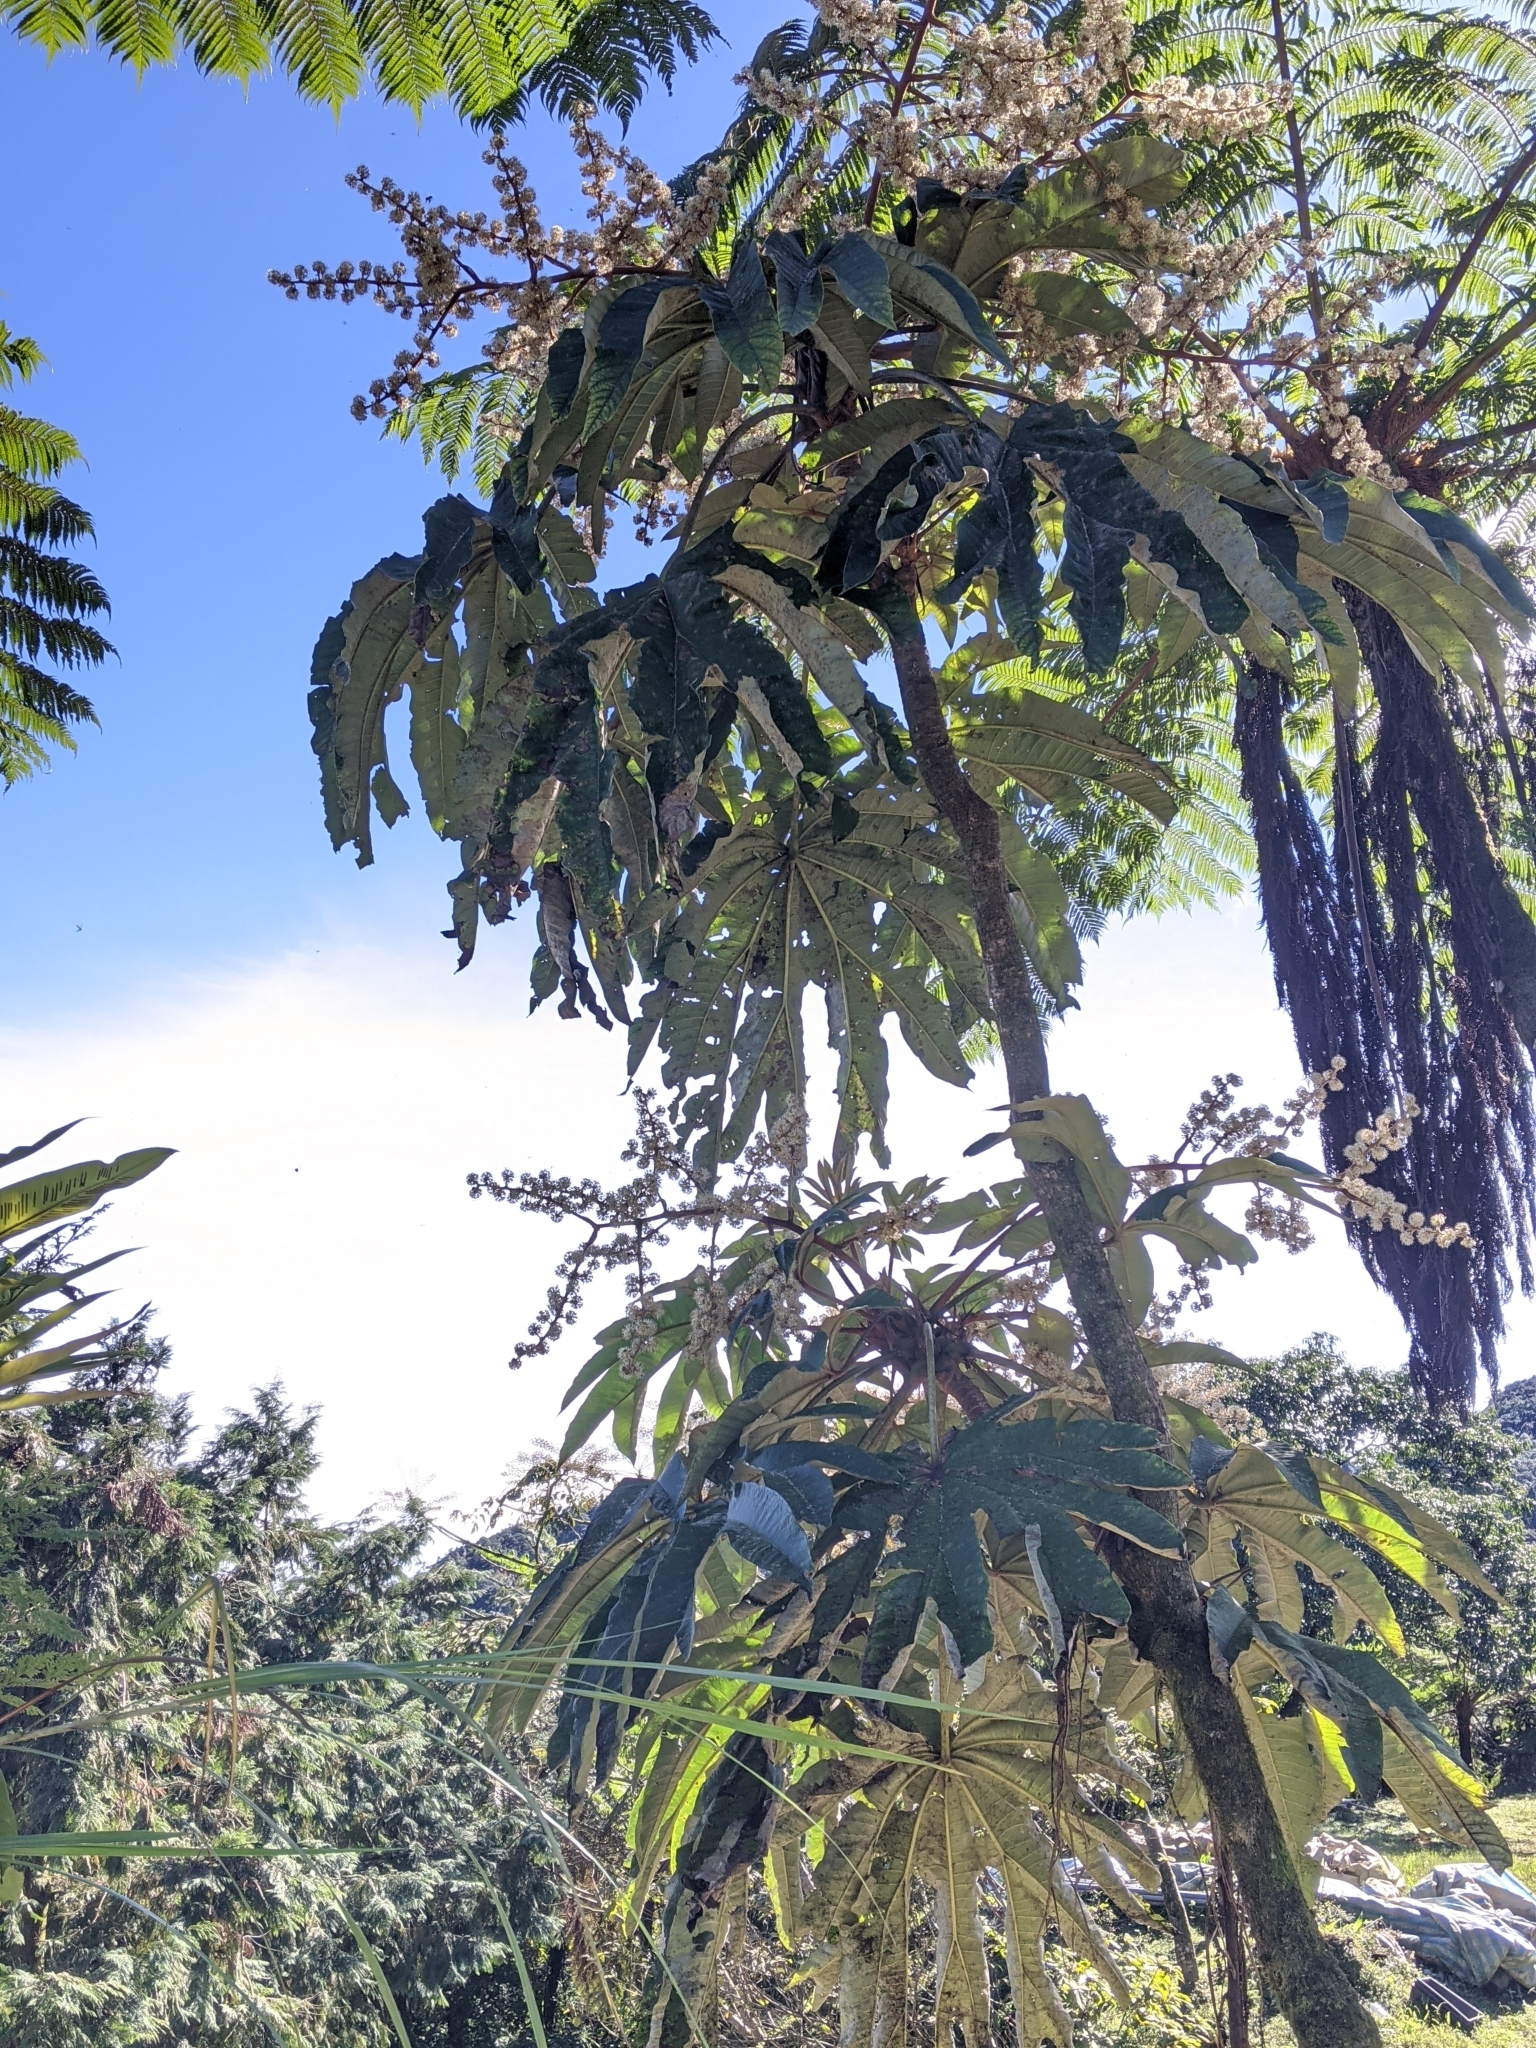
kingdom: Plantae
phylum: Tracheophyta
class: Magnoliopsida
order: Apiales
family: Araliaceae
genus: Tetrapanax
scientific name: Tetrapanax papyrifer
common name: Rice-paper plant
